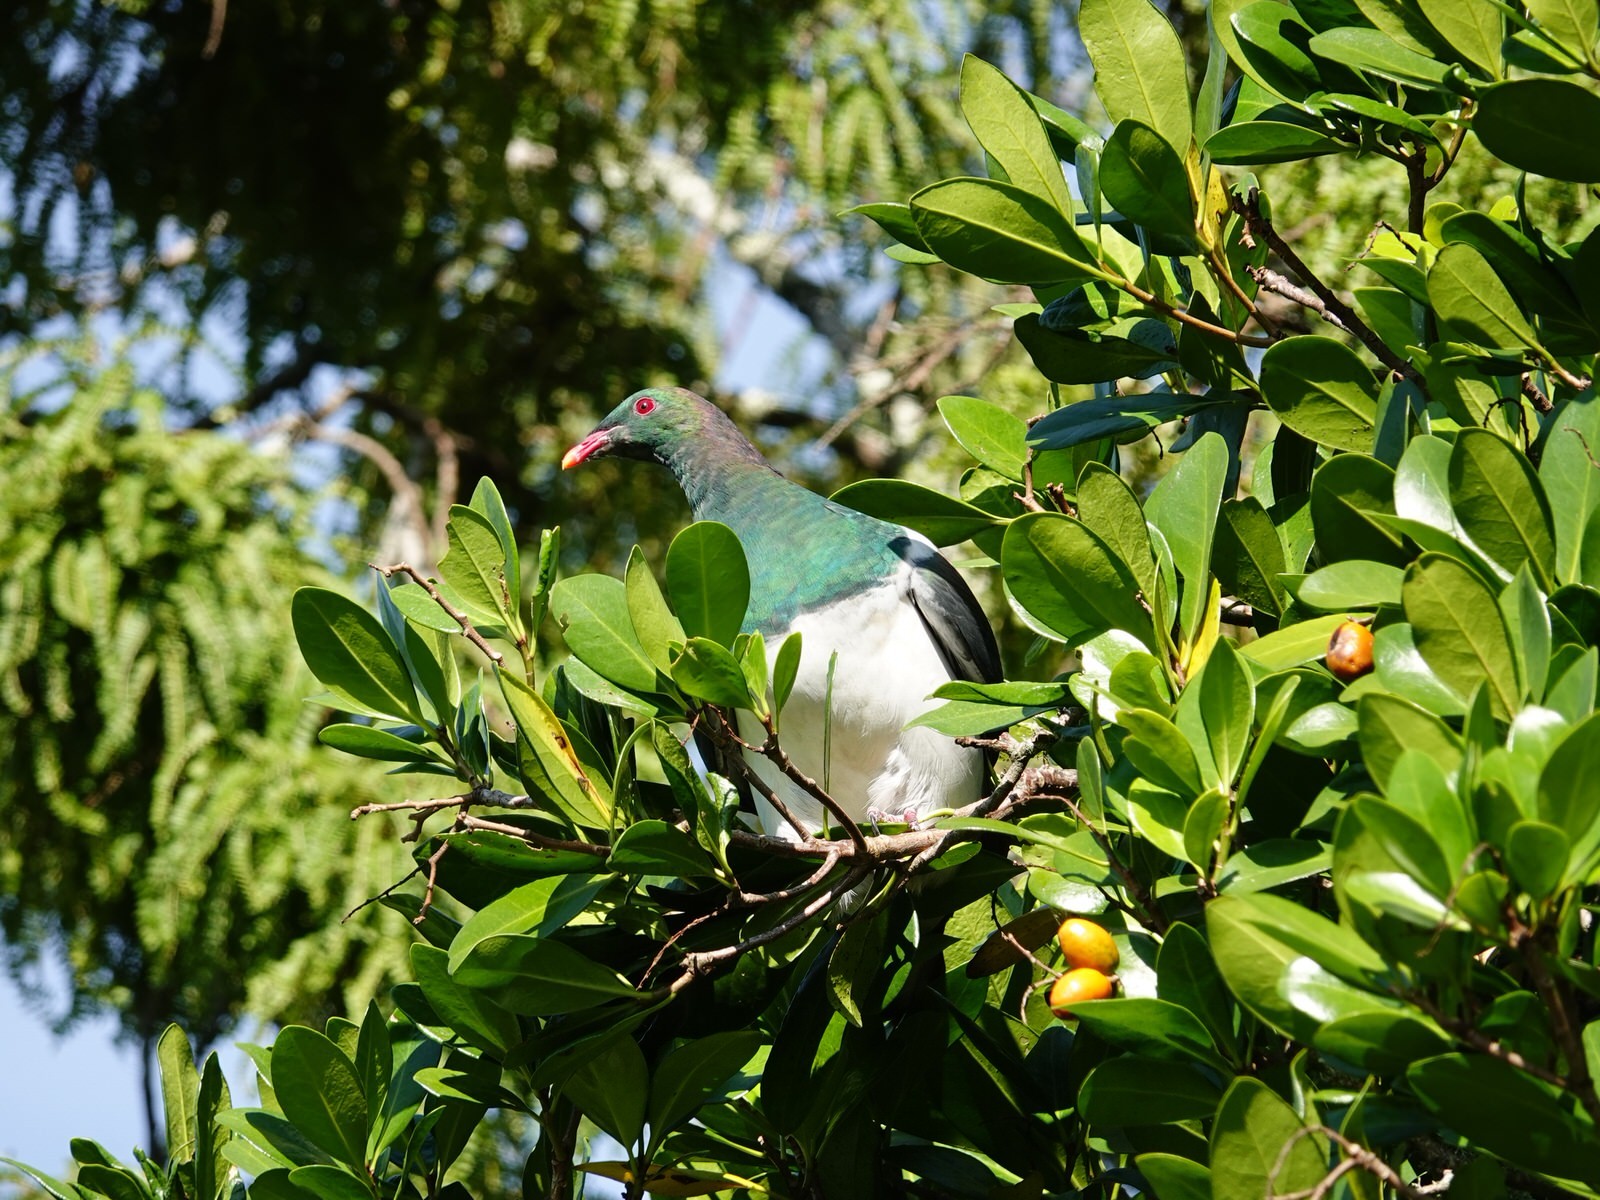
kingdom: Animalia
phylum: Chordata
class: Aves
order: Columbiformes
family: Columbidae
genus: Hemiphaga
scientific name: Hemiphaga novaeseelandiae
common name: New zealand pigeon
